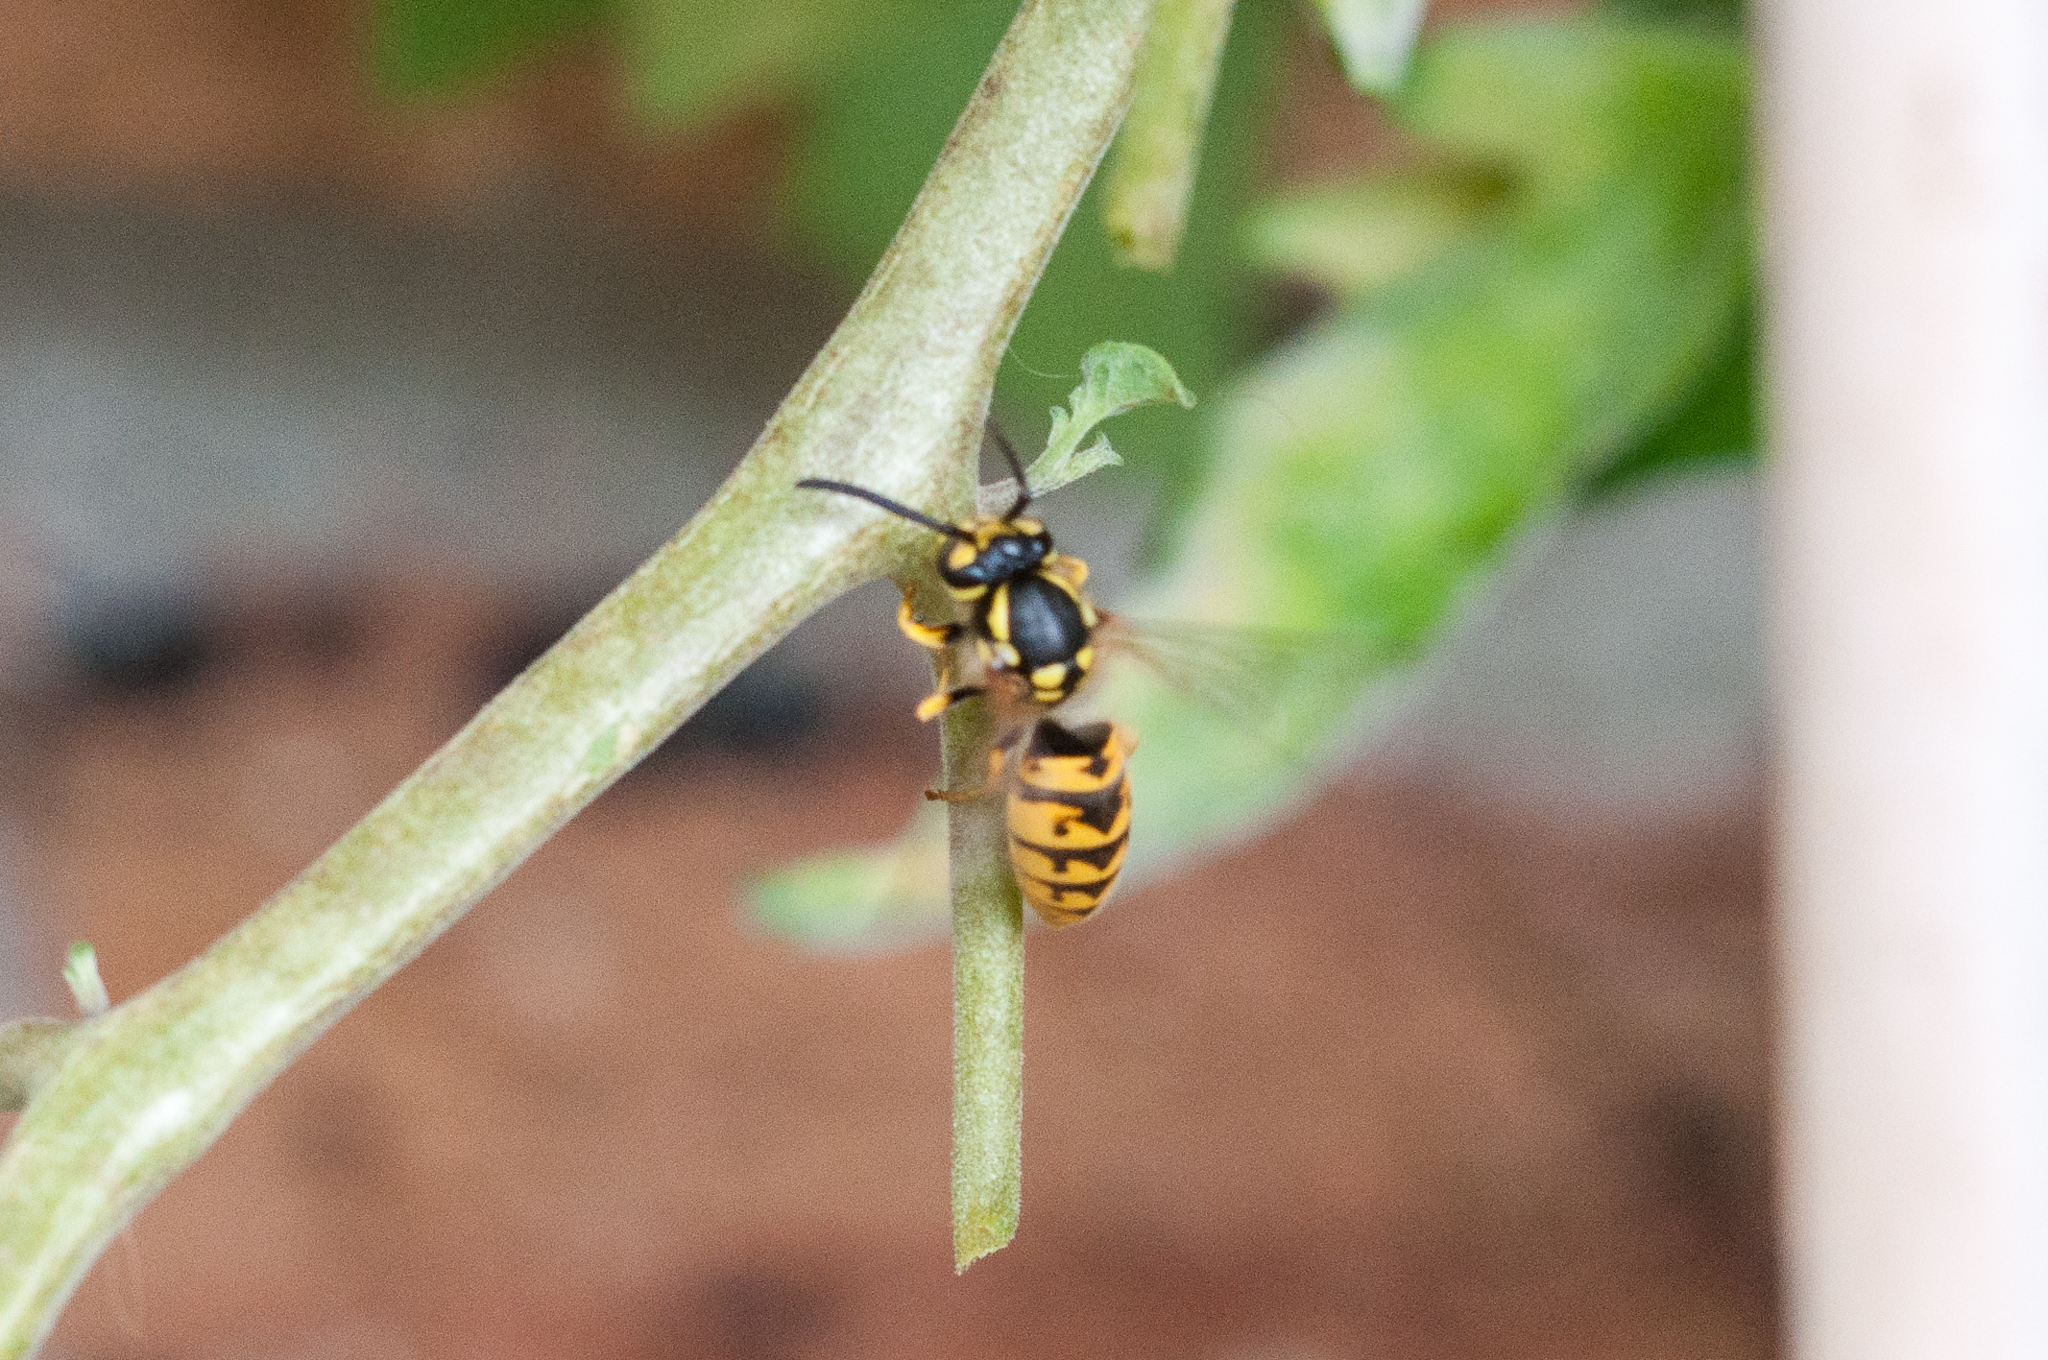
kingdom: Animalia
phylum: Arthropoda
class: Insecta
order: Hymenoptera
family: Vespidae
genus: Vespula
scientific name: Vespula germanica
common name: German wasp
